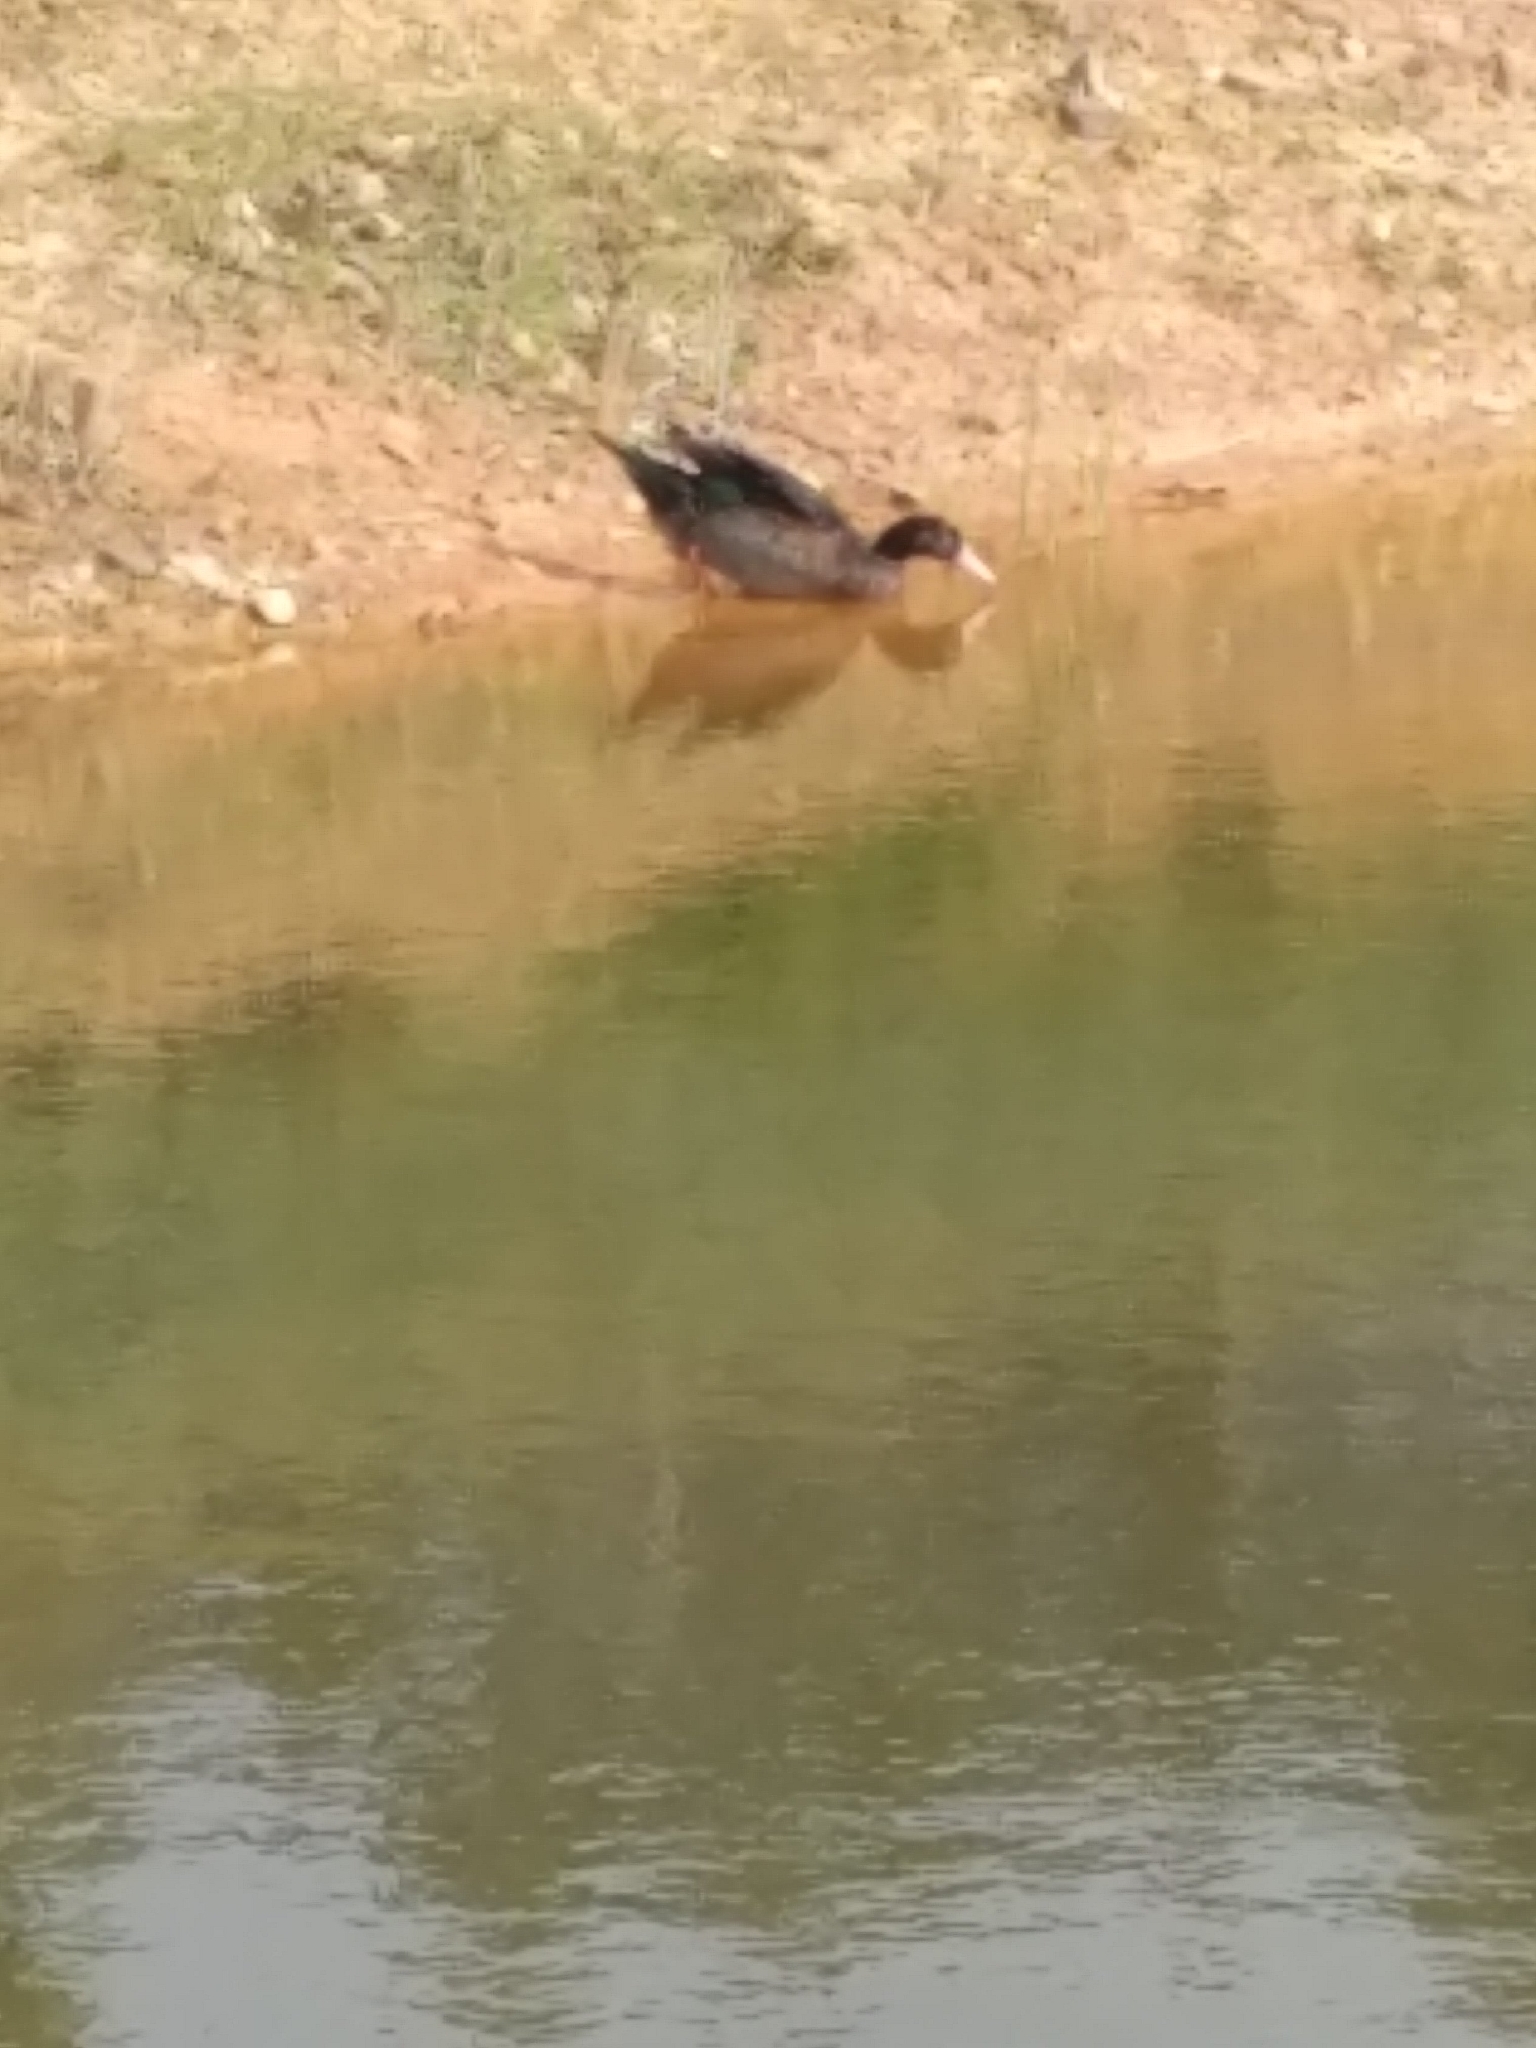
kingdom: Animalia
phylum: Chordata
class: Aves
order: Anseriformes
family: Anatidae
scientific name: Anatidae
